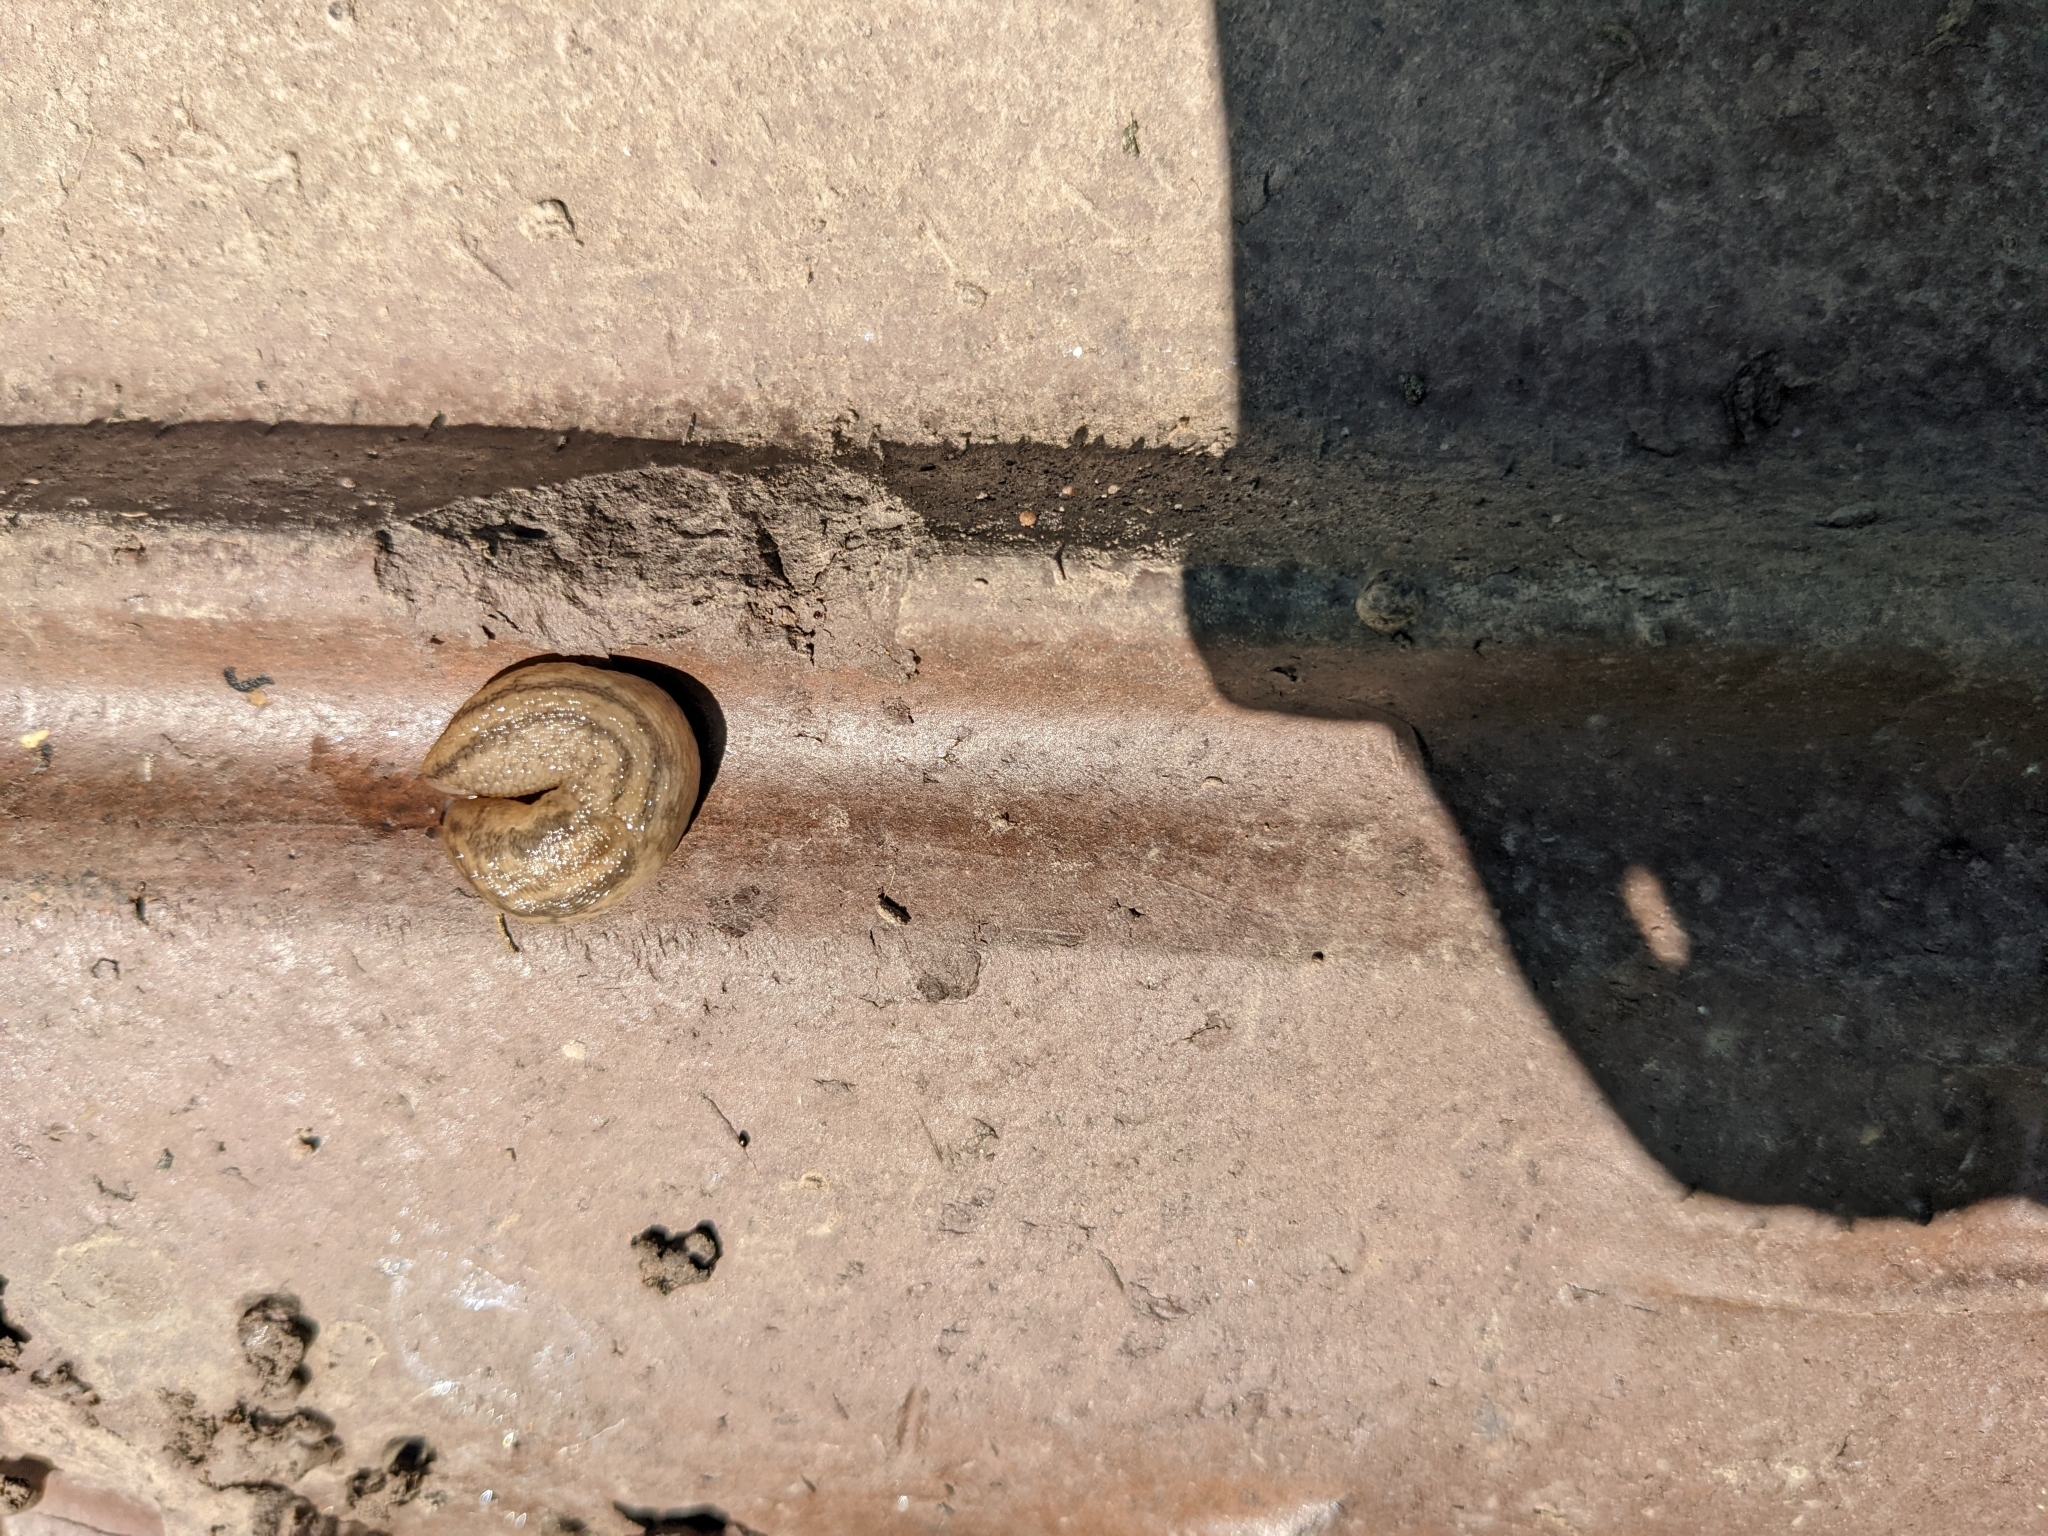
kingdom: Animalia
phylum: Mollusca
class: Gastropoda
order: Stylommatophora
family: Limacidae
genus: Ambigolimax
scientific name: Ambigolimax
